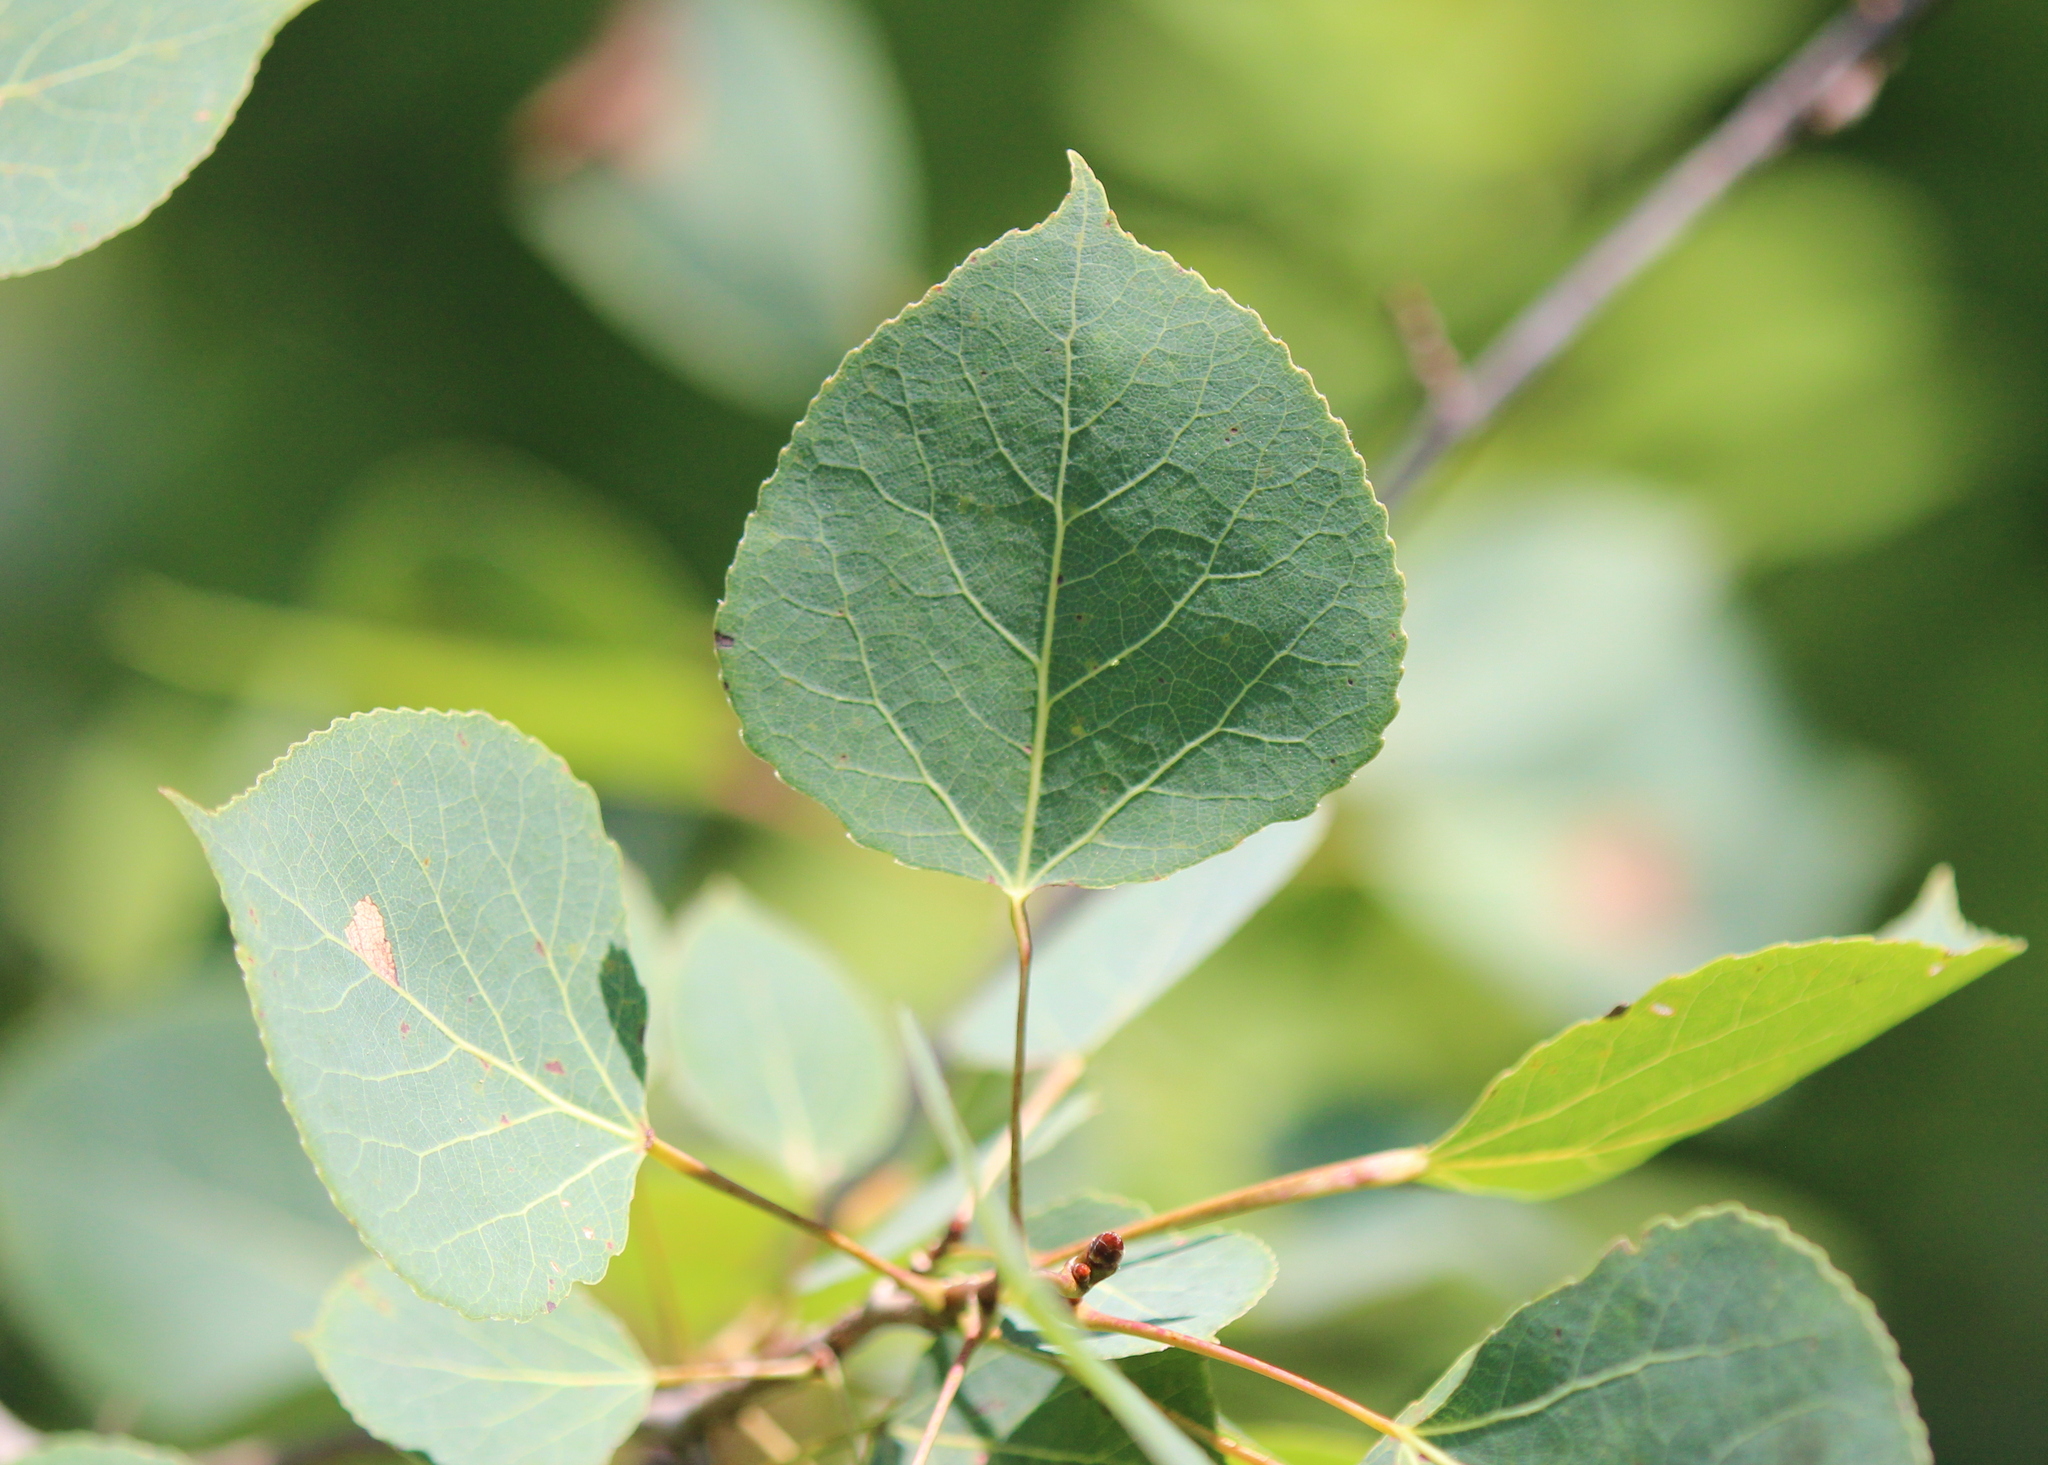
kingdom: Plantae
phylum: Tracheophyta
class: Magnoliopsida
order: Malpighiales
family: Salicaceae
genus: Populus
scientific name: Populus tremuloides
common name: Quaking aspen
